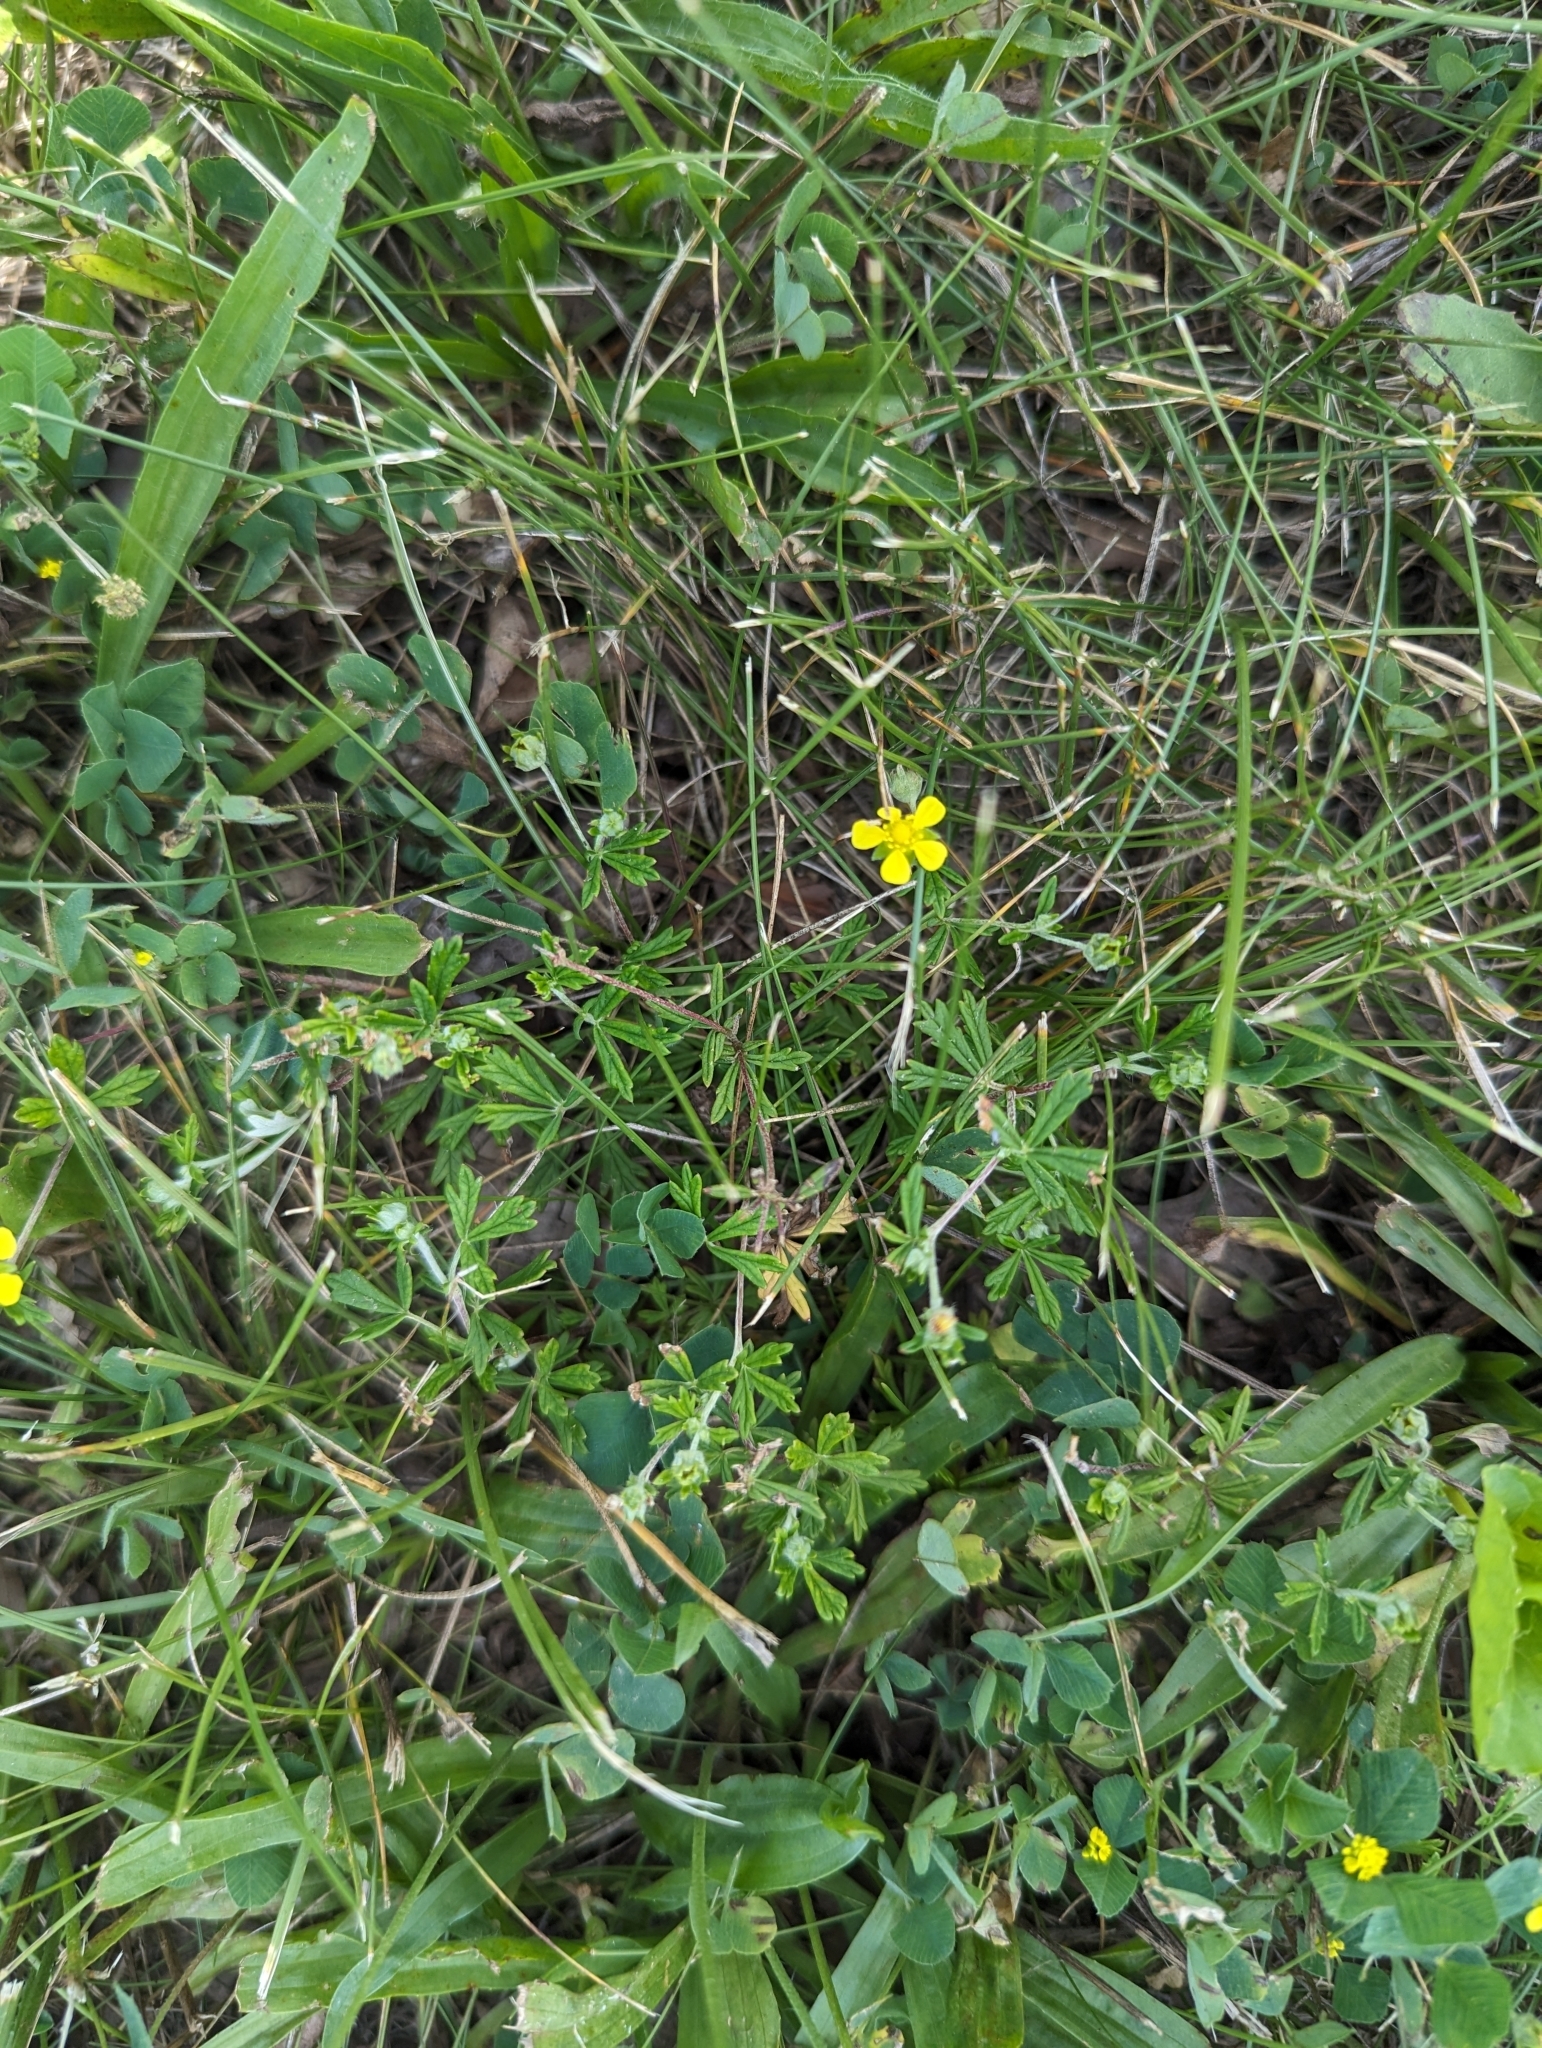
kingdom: Plantae
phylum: Tracheophyta
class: Magnoliopsida
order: Rosales
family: Rosaceae
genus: Potentilla
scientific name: Potentilla argentea
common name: Hoary cinquefoil
